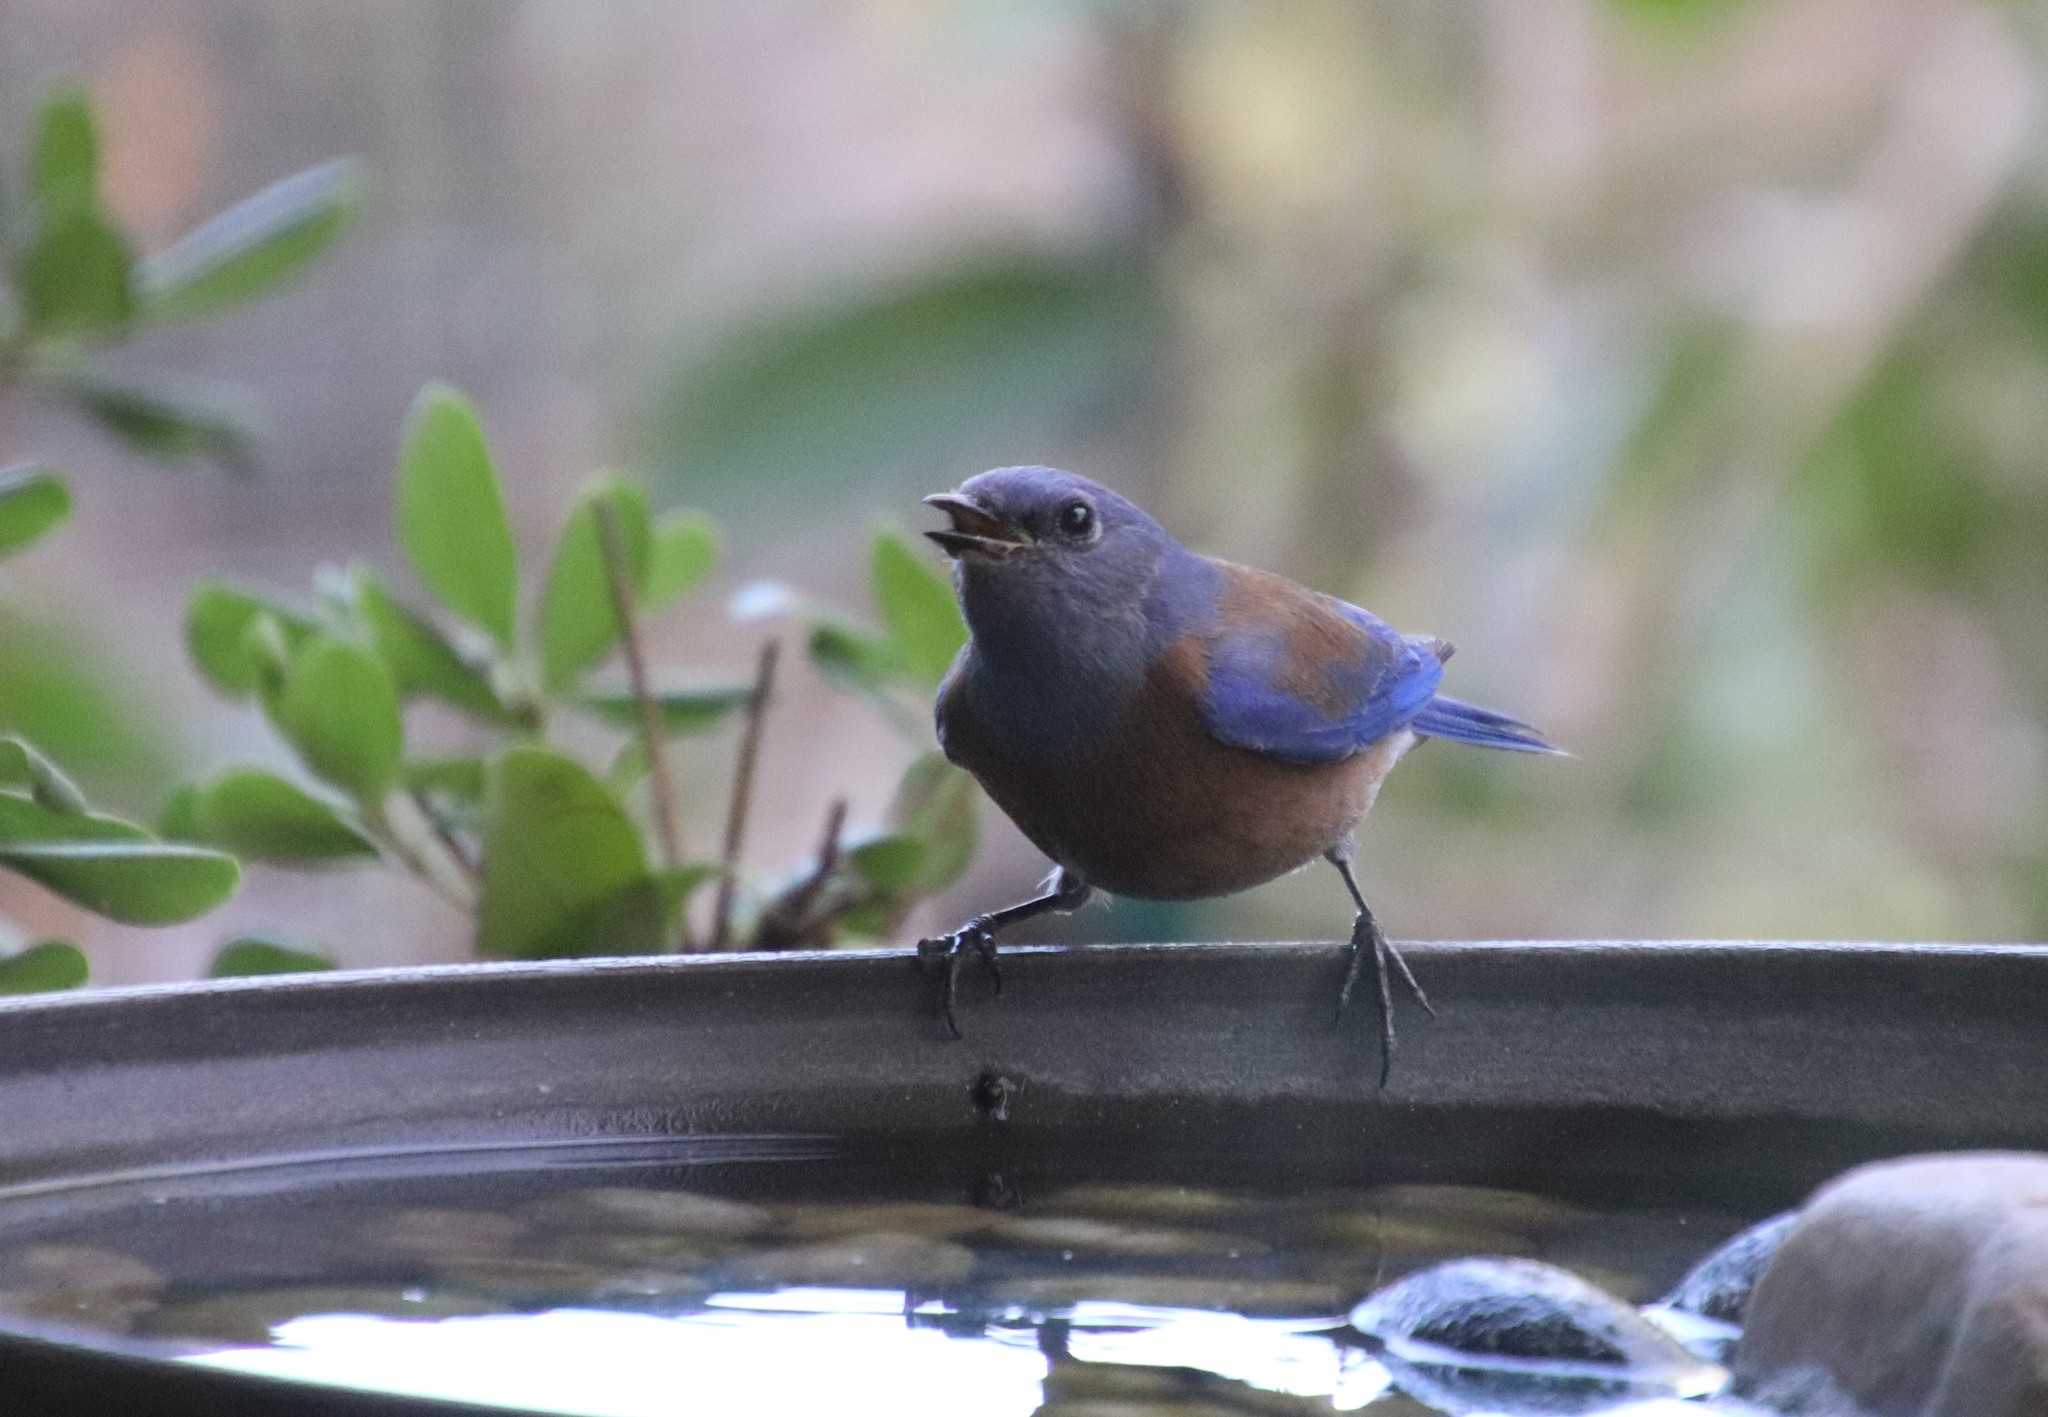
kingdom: Animalia
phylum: Chordata
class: Aves
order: Passeriformes
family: Turdidae
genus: Sialia
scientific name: Sialia mexicana
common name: Western bluebird
